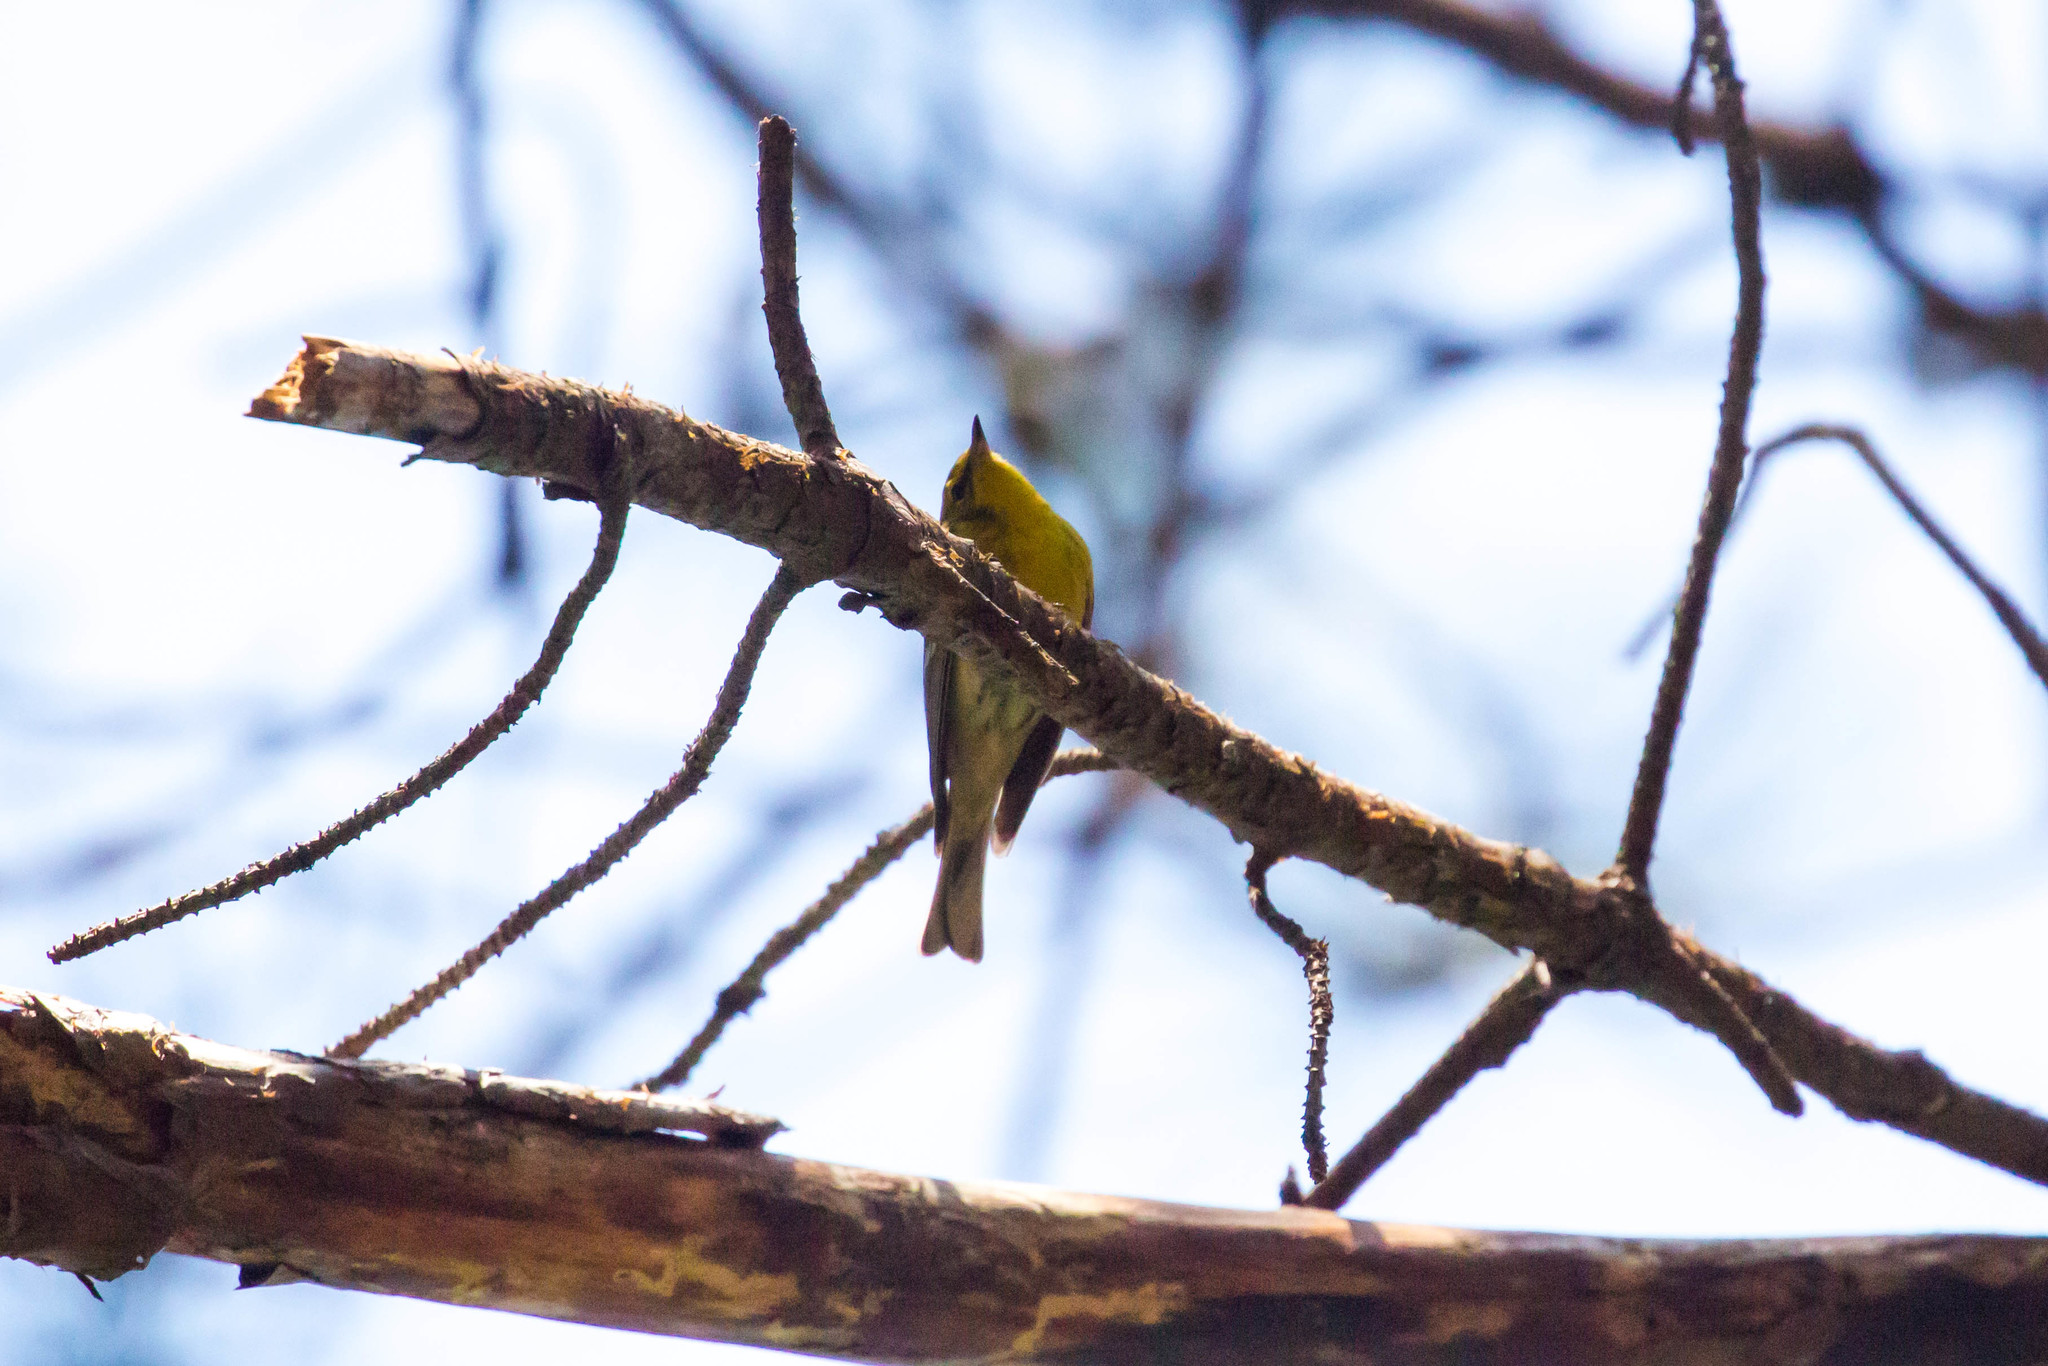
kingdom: Animalia
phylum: Chordata
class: Aves
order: Passeriformes
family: Parulidae
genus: Setophaga
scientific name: Setophaga pinus
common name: Pine warbler
